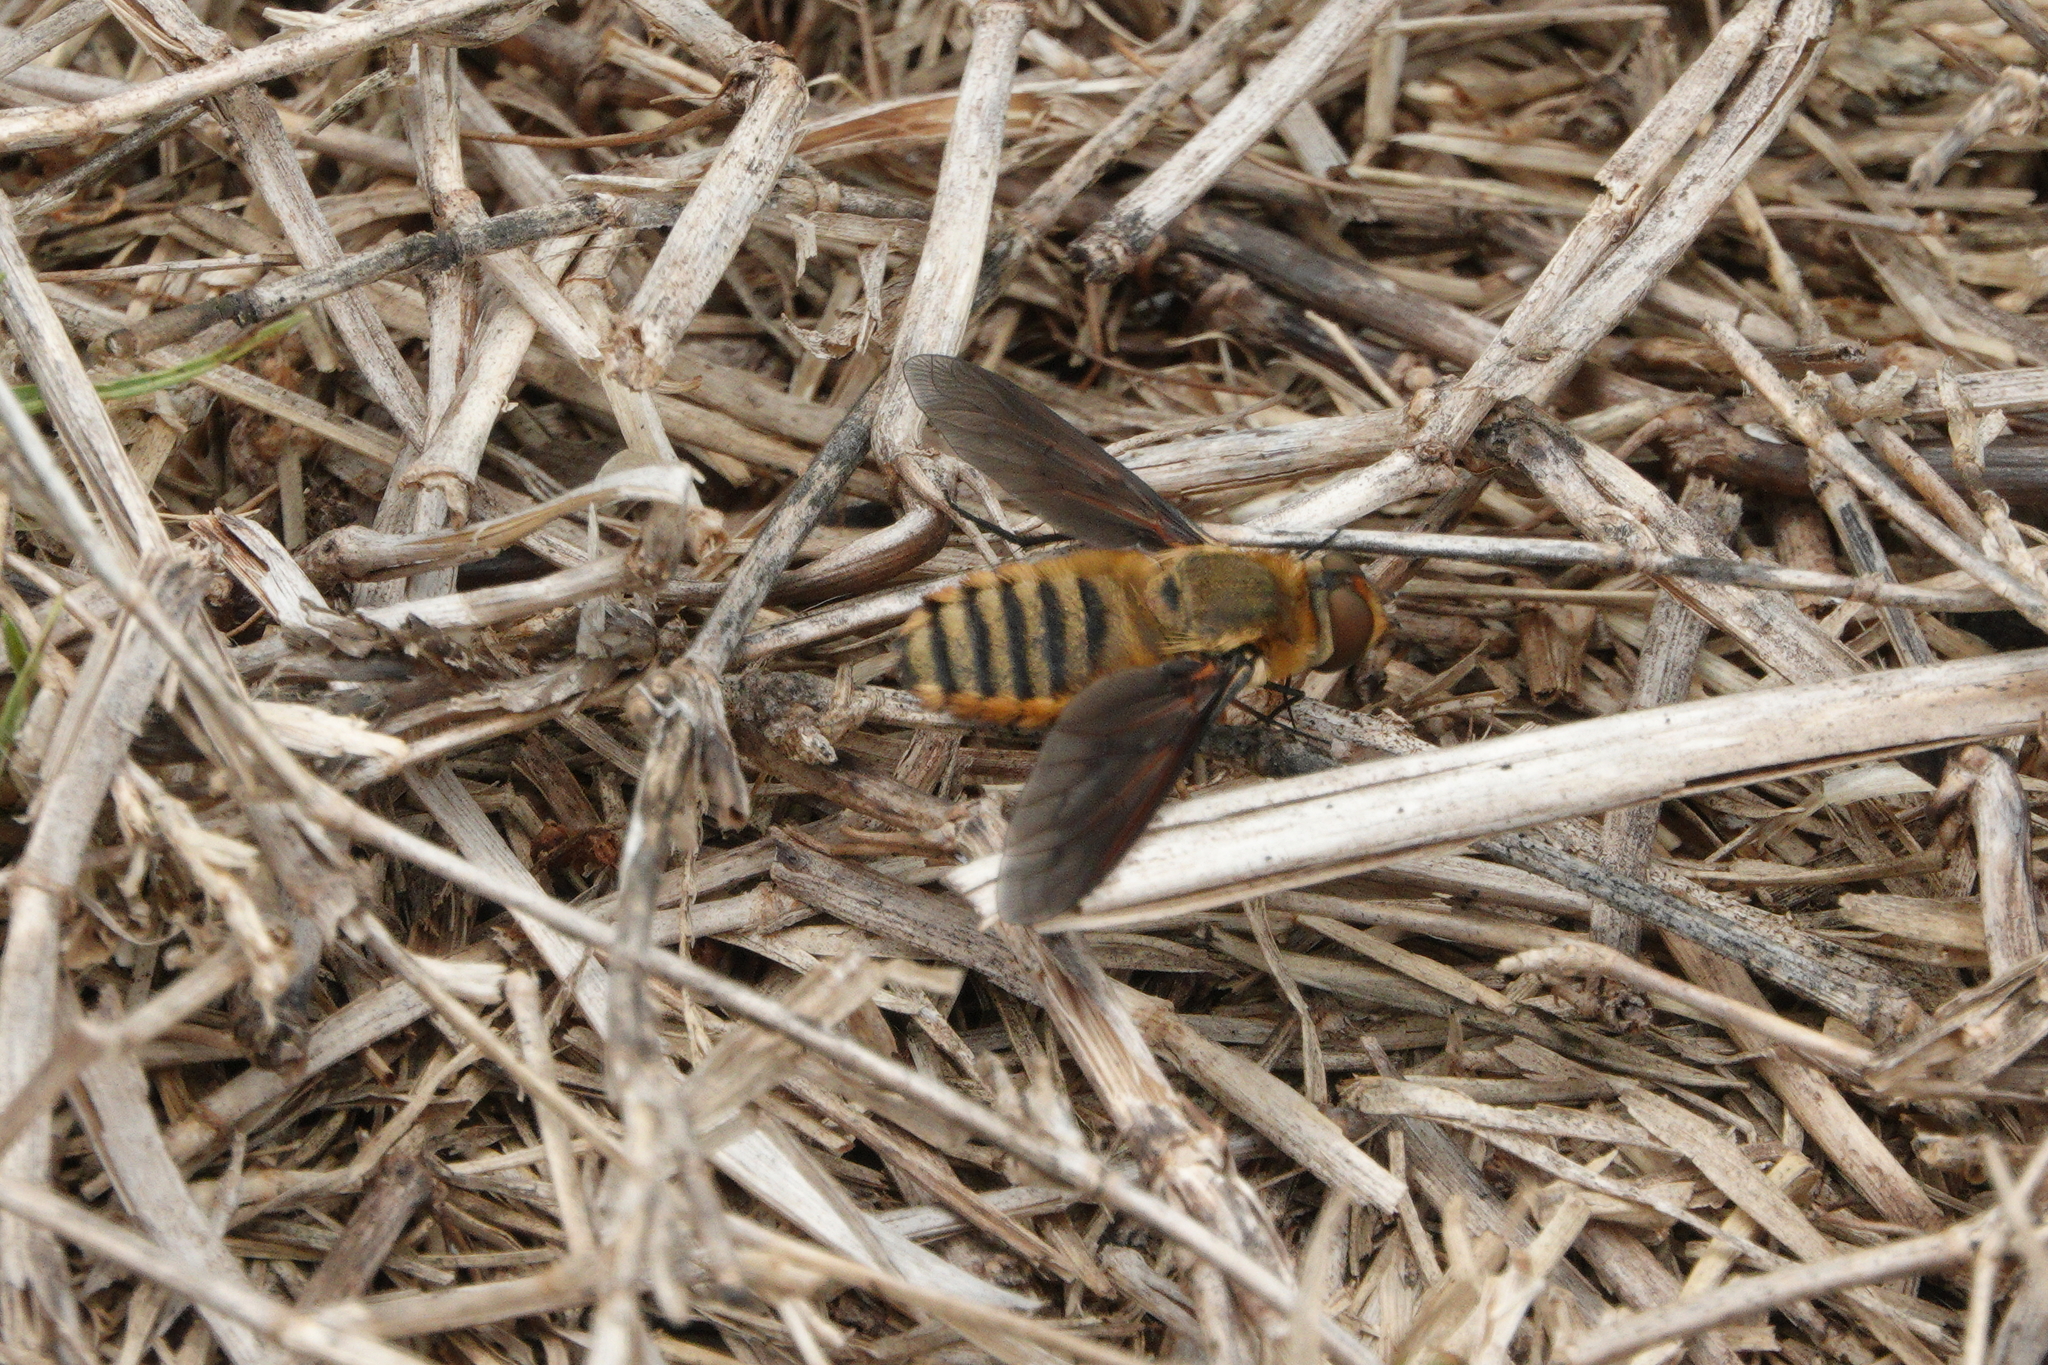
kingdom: Animalia
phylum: Arthropoda
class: Insecta
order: Diptera
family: Bombyliidae
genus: Poecilanthrax
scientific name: Poecilanthrax lucifer
